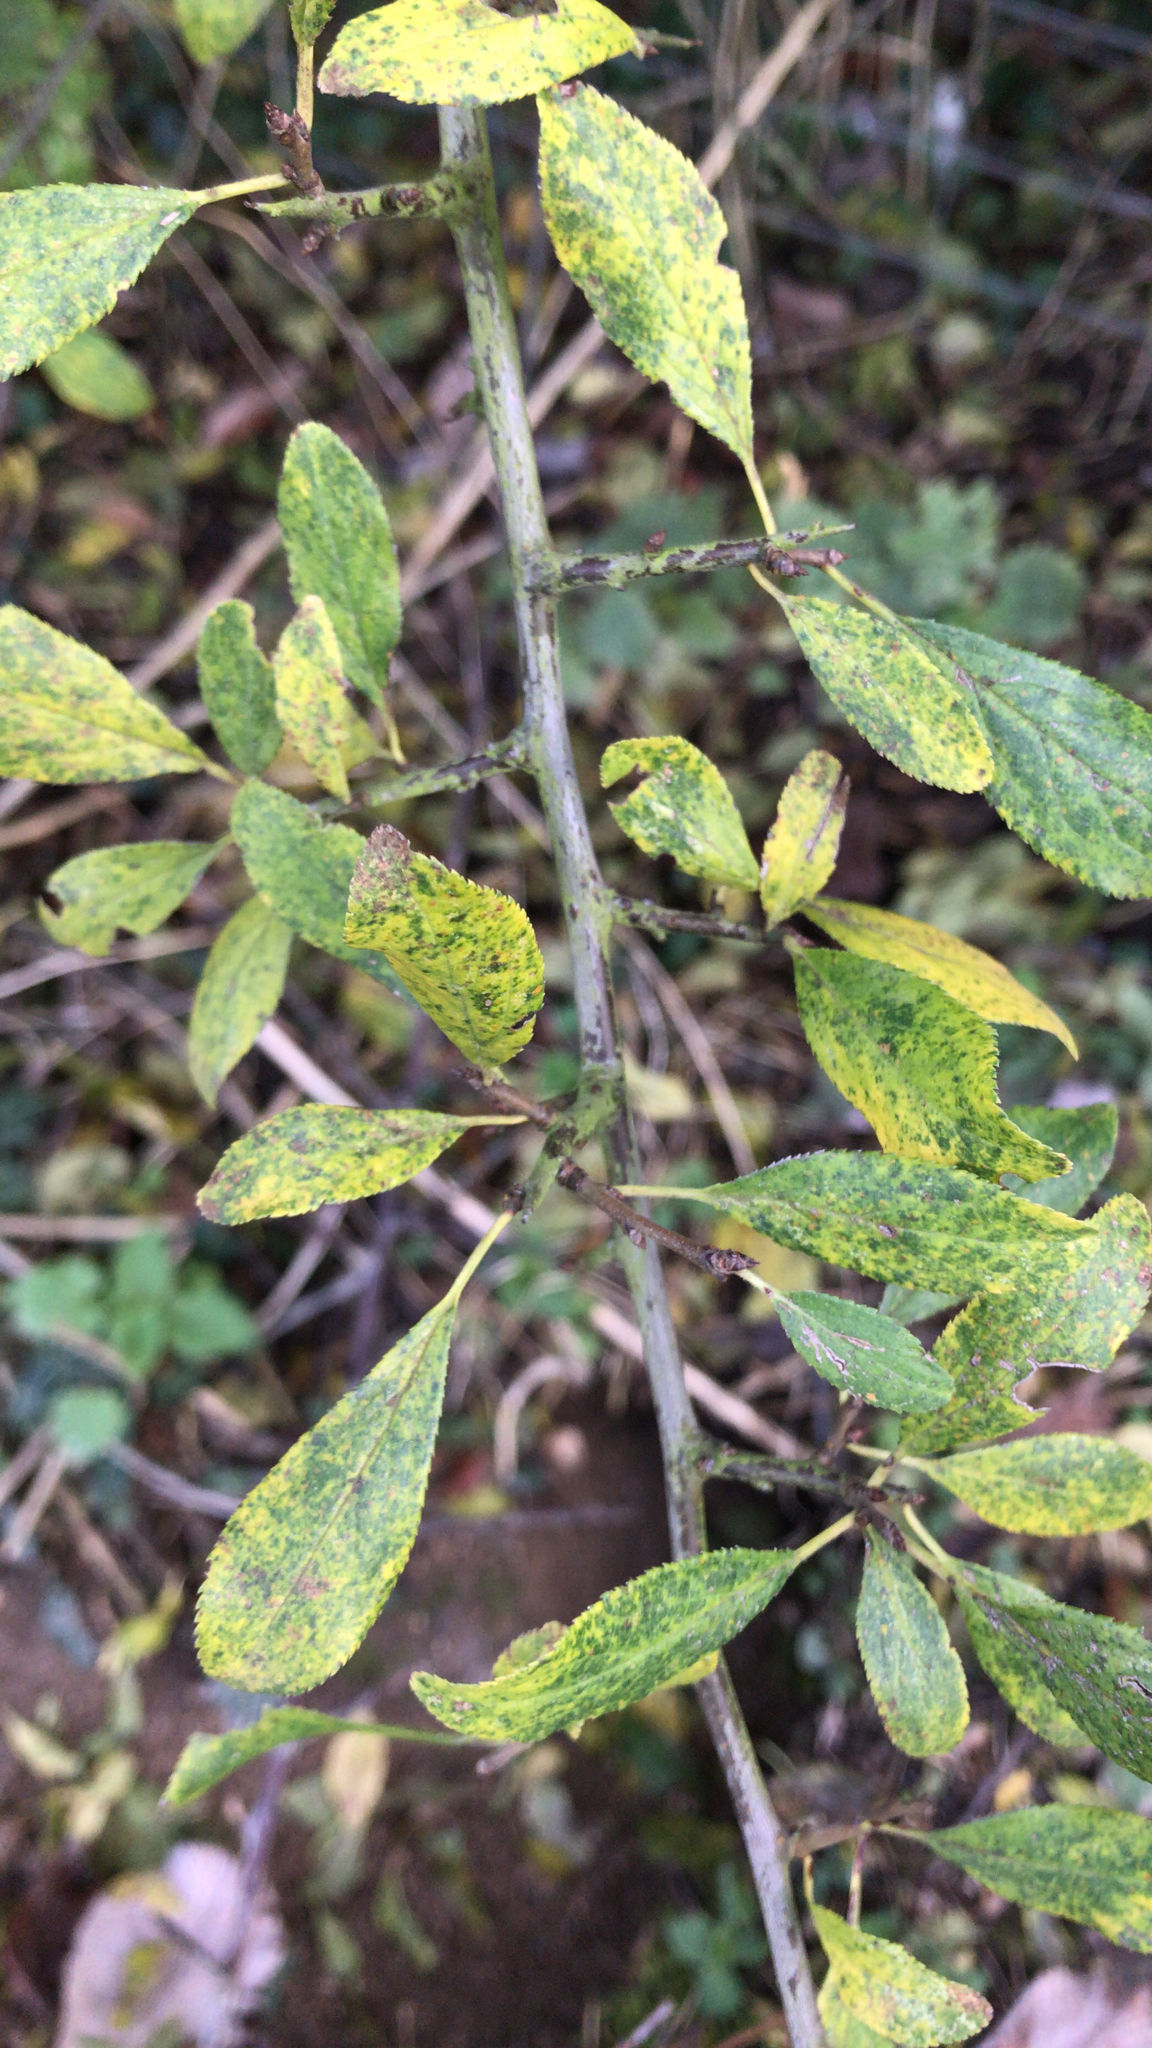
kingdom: Plantae
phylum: Tracheophyta
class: Magnoliopsida
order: Rosales
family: Rosaceae
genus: Prunus
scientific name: Prunus spinosa
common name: Blackthorn
